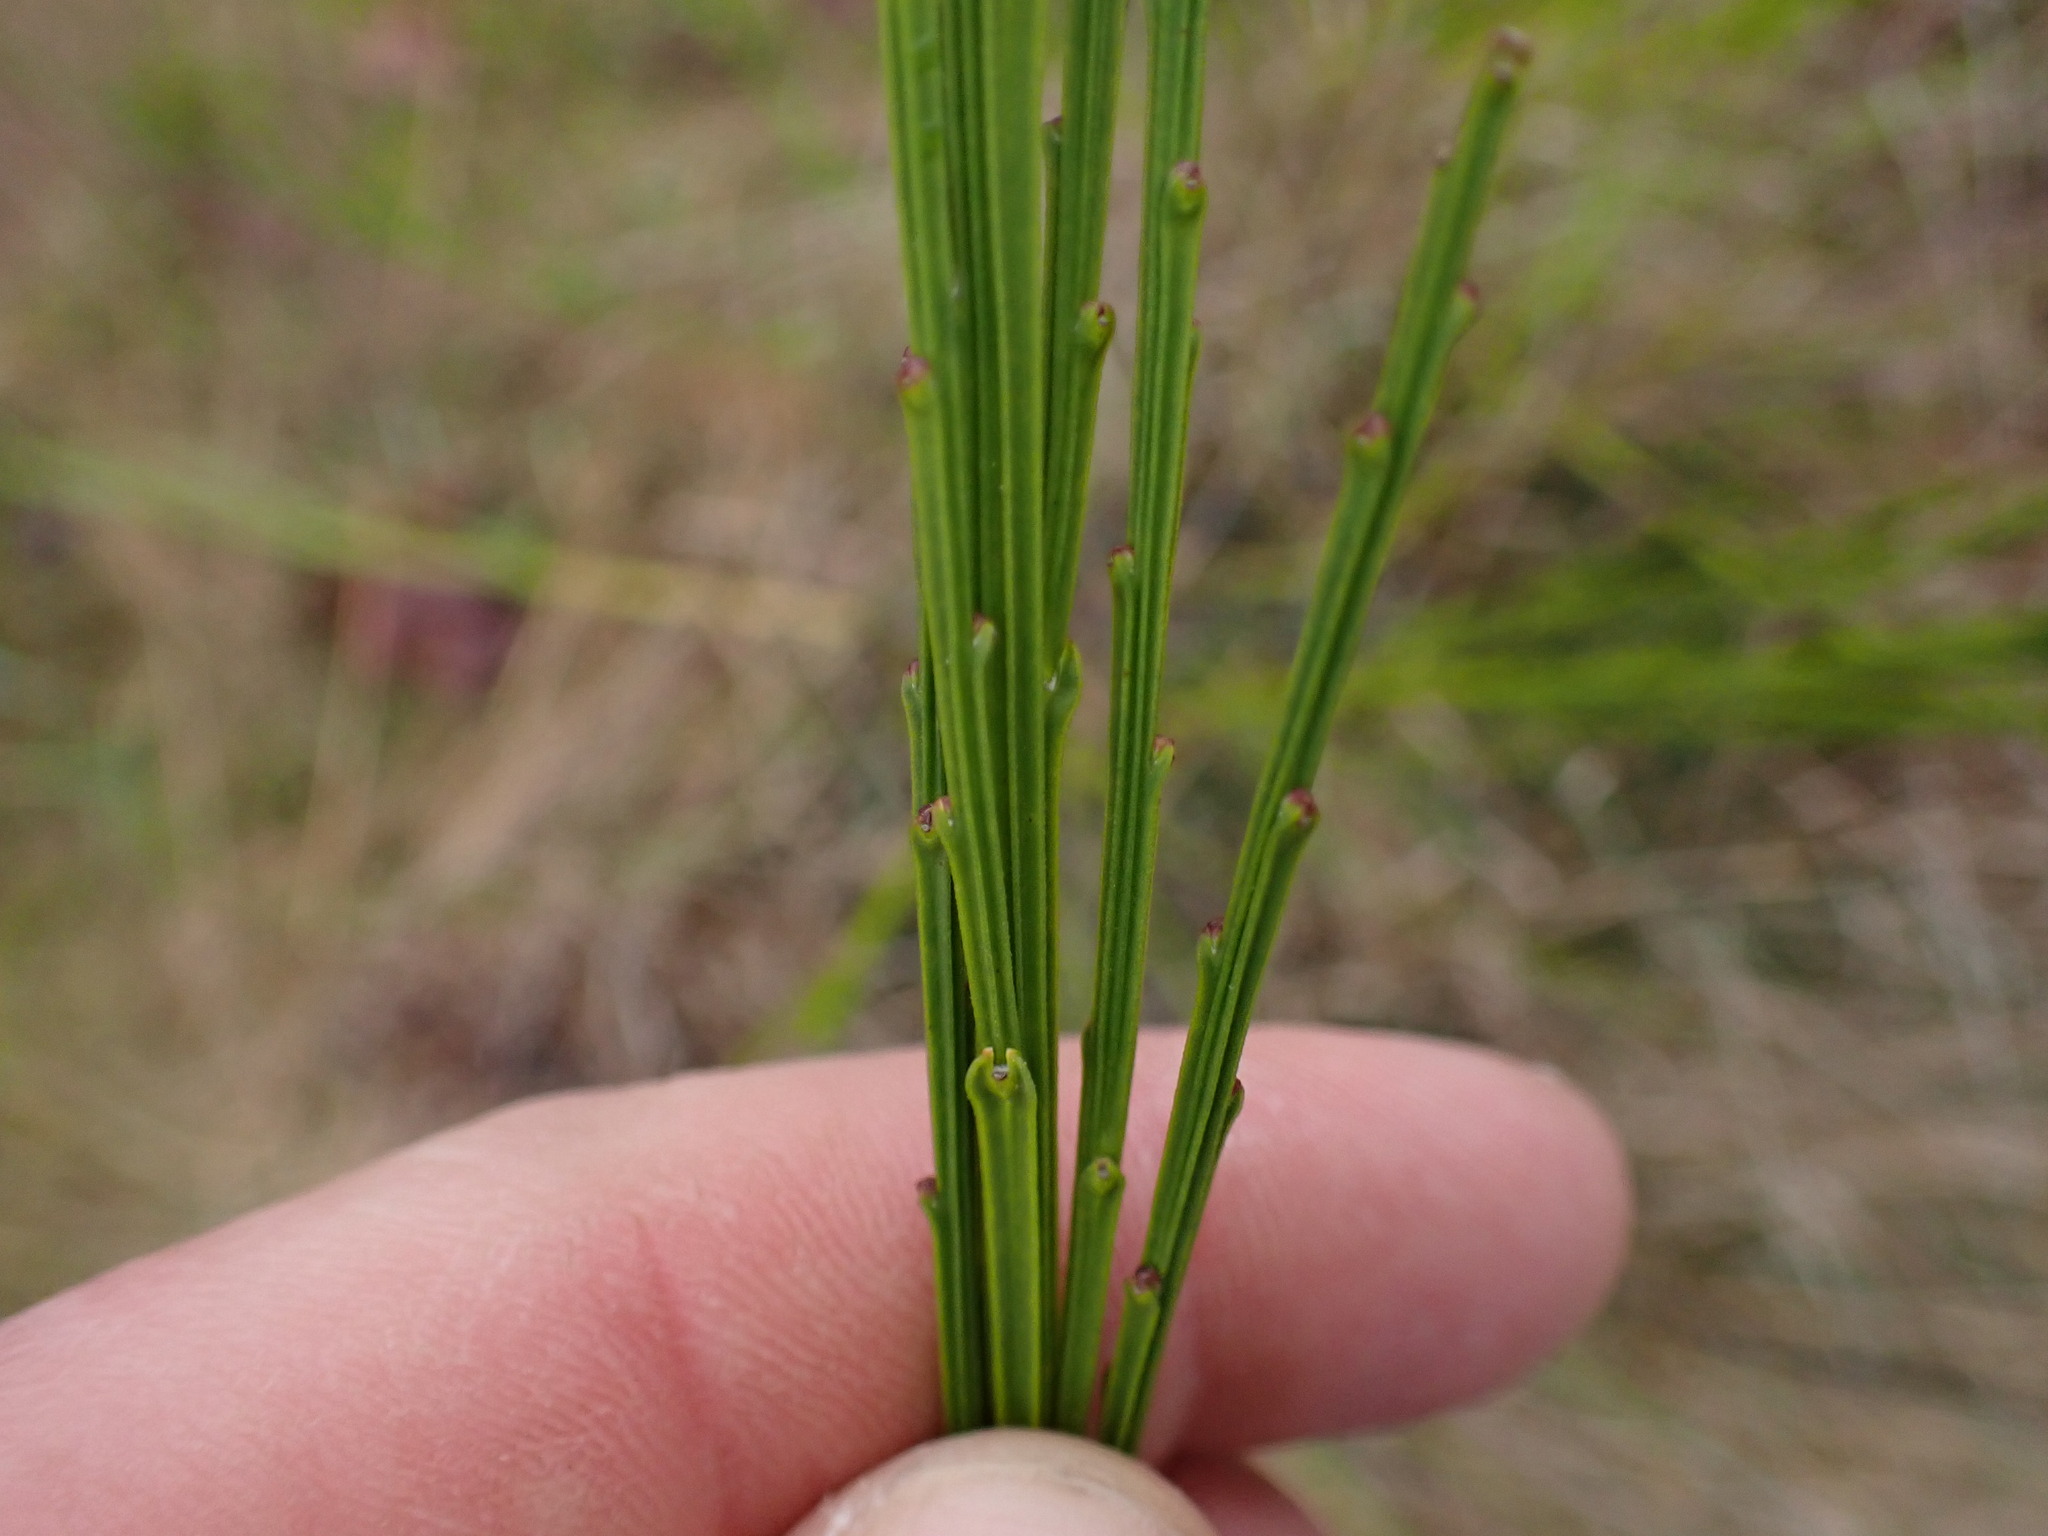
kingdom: Plantae
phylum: Tracheophyta
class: Magnoliopsida
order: Fabales
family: Fabaceae
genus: Cytisus
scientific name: Cytisus scoparius
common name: Scotch broom
